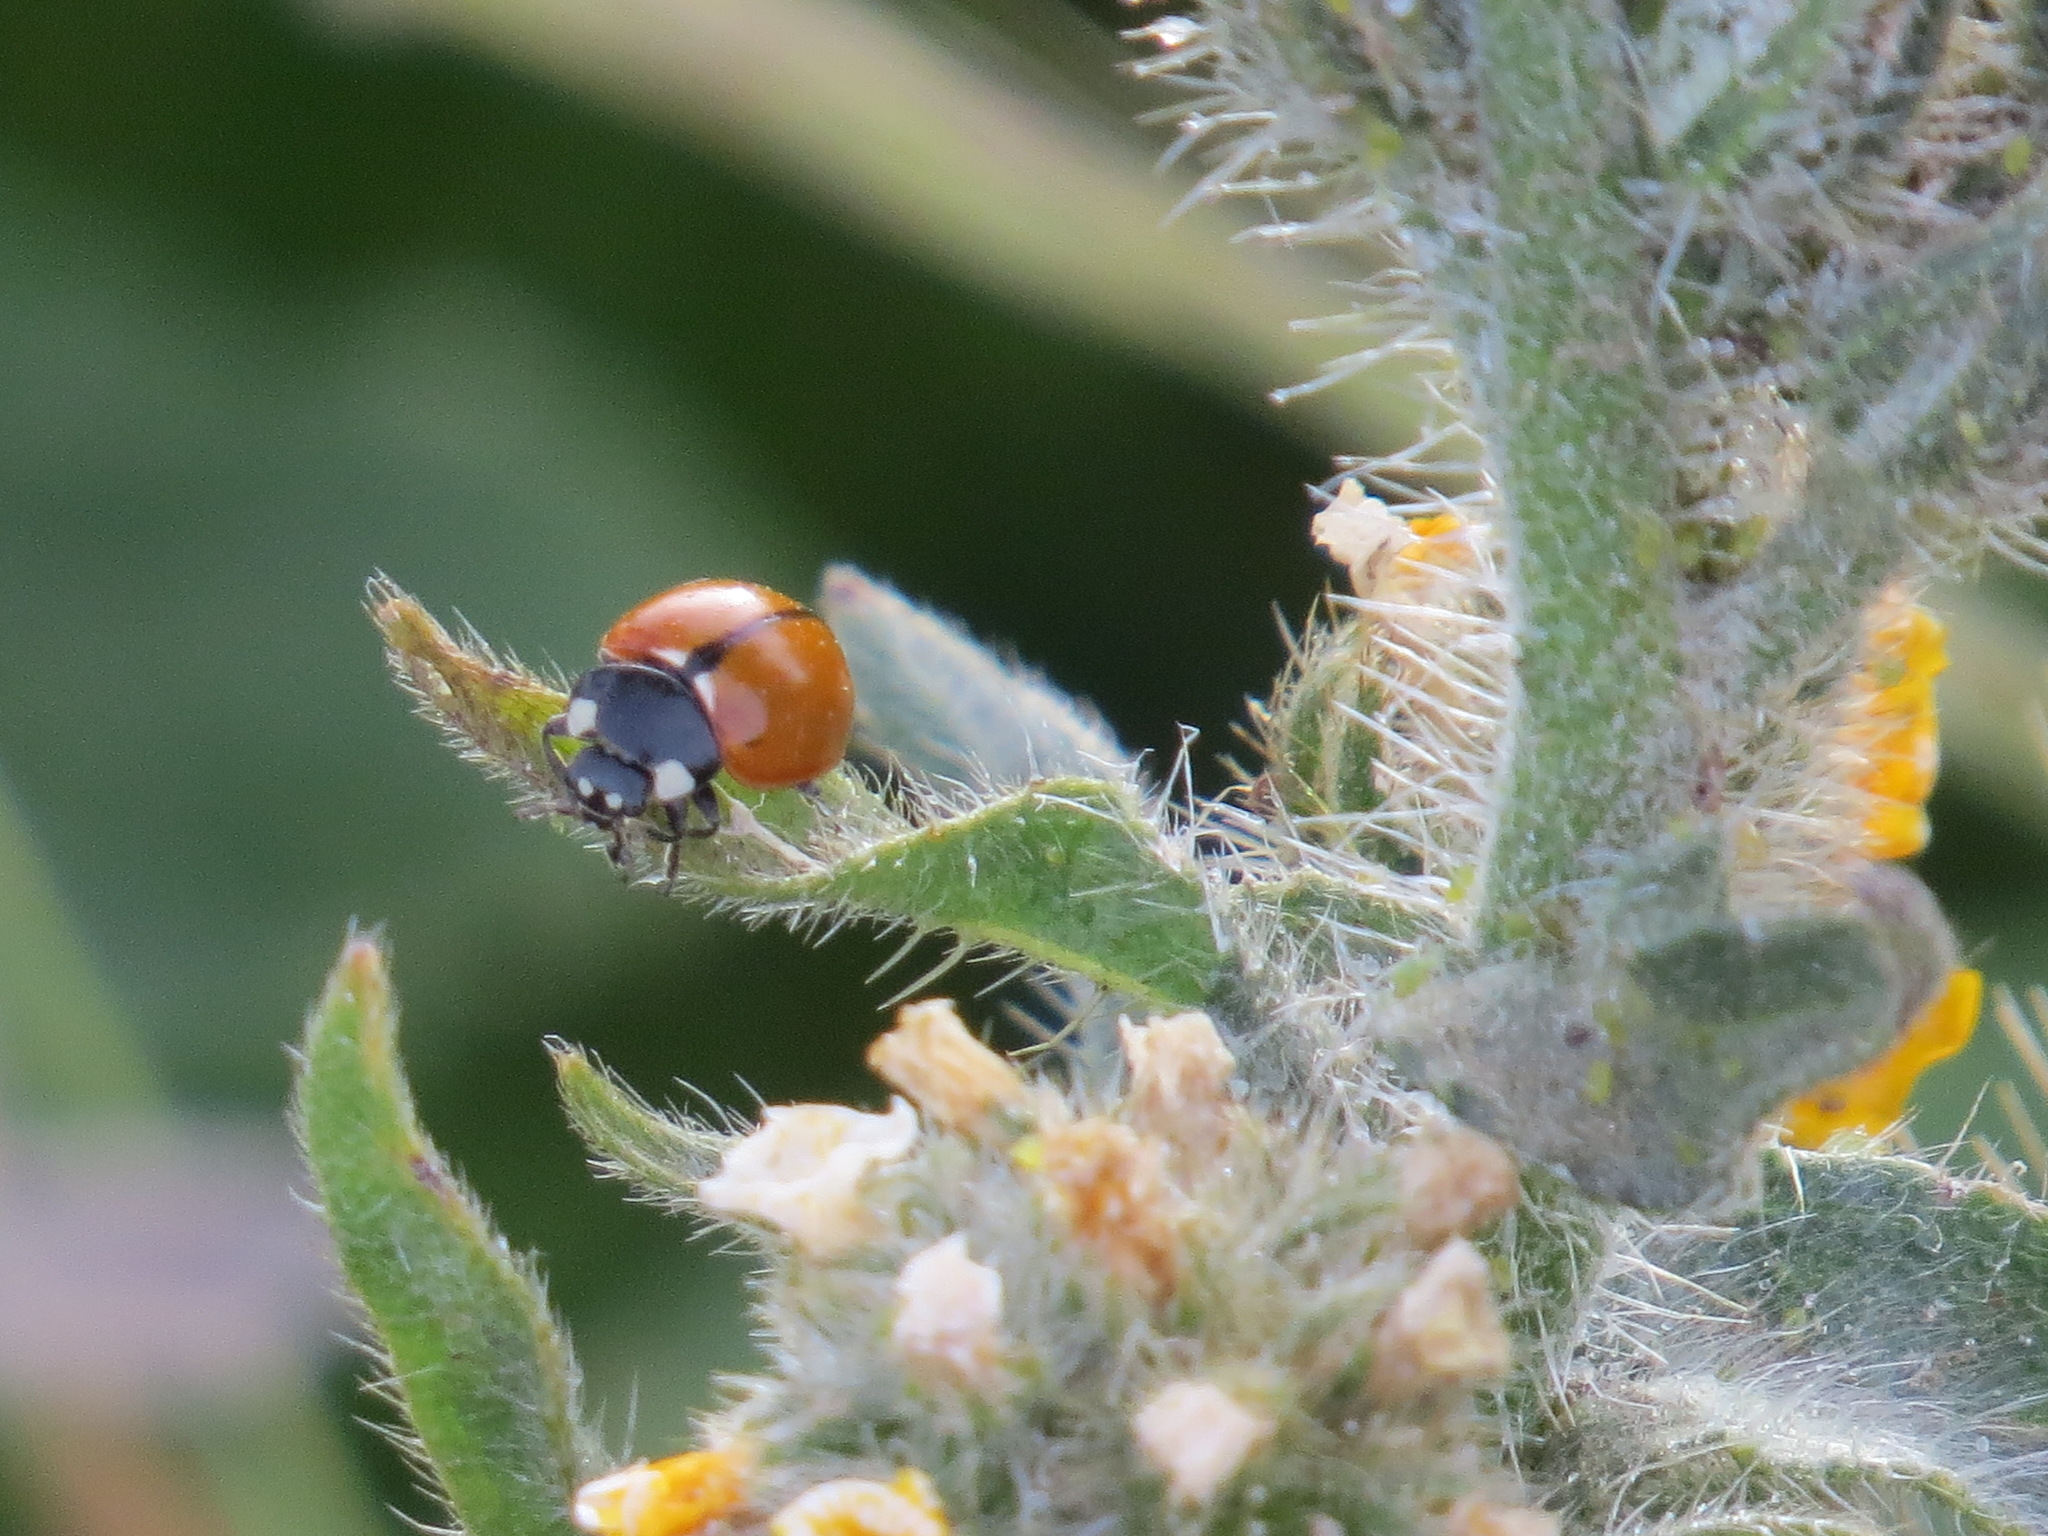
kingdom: Animalia
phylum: Arthropoda
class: Insecta
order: Coleoptera
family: Coccinellidae
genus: Coccinella
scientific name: Coccinella californica
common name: Lady beetle
